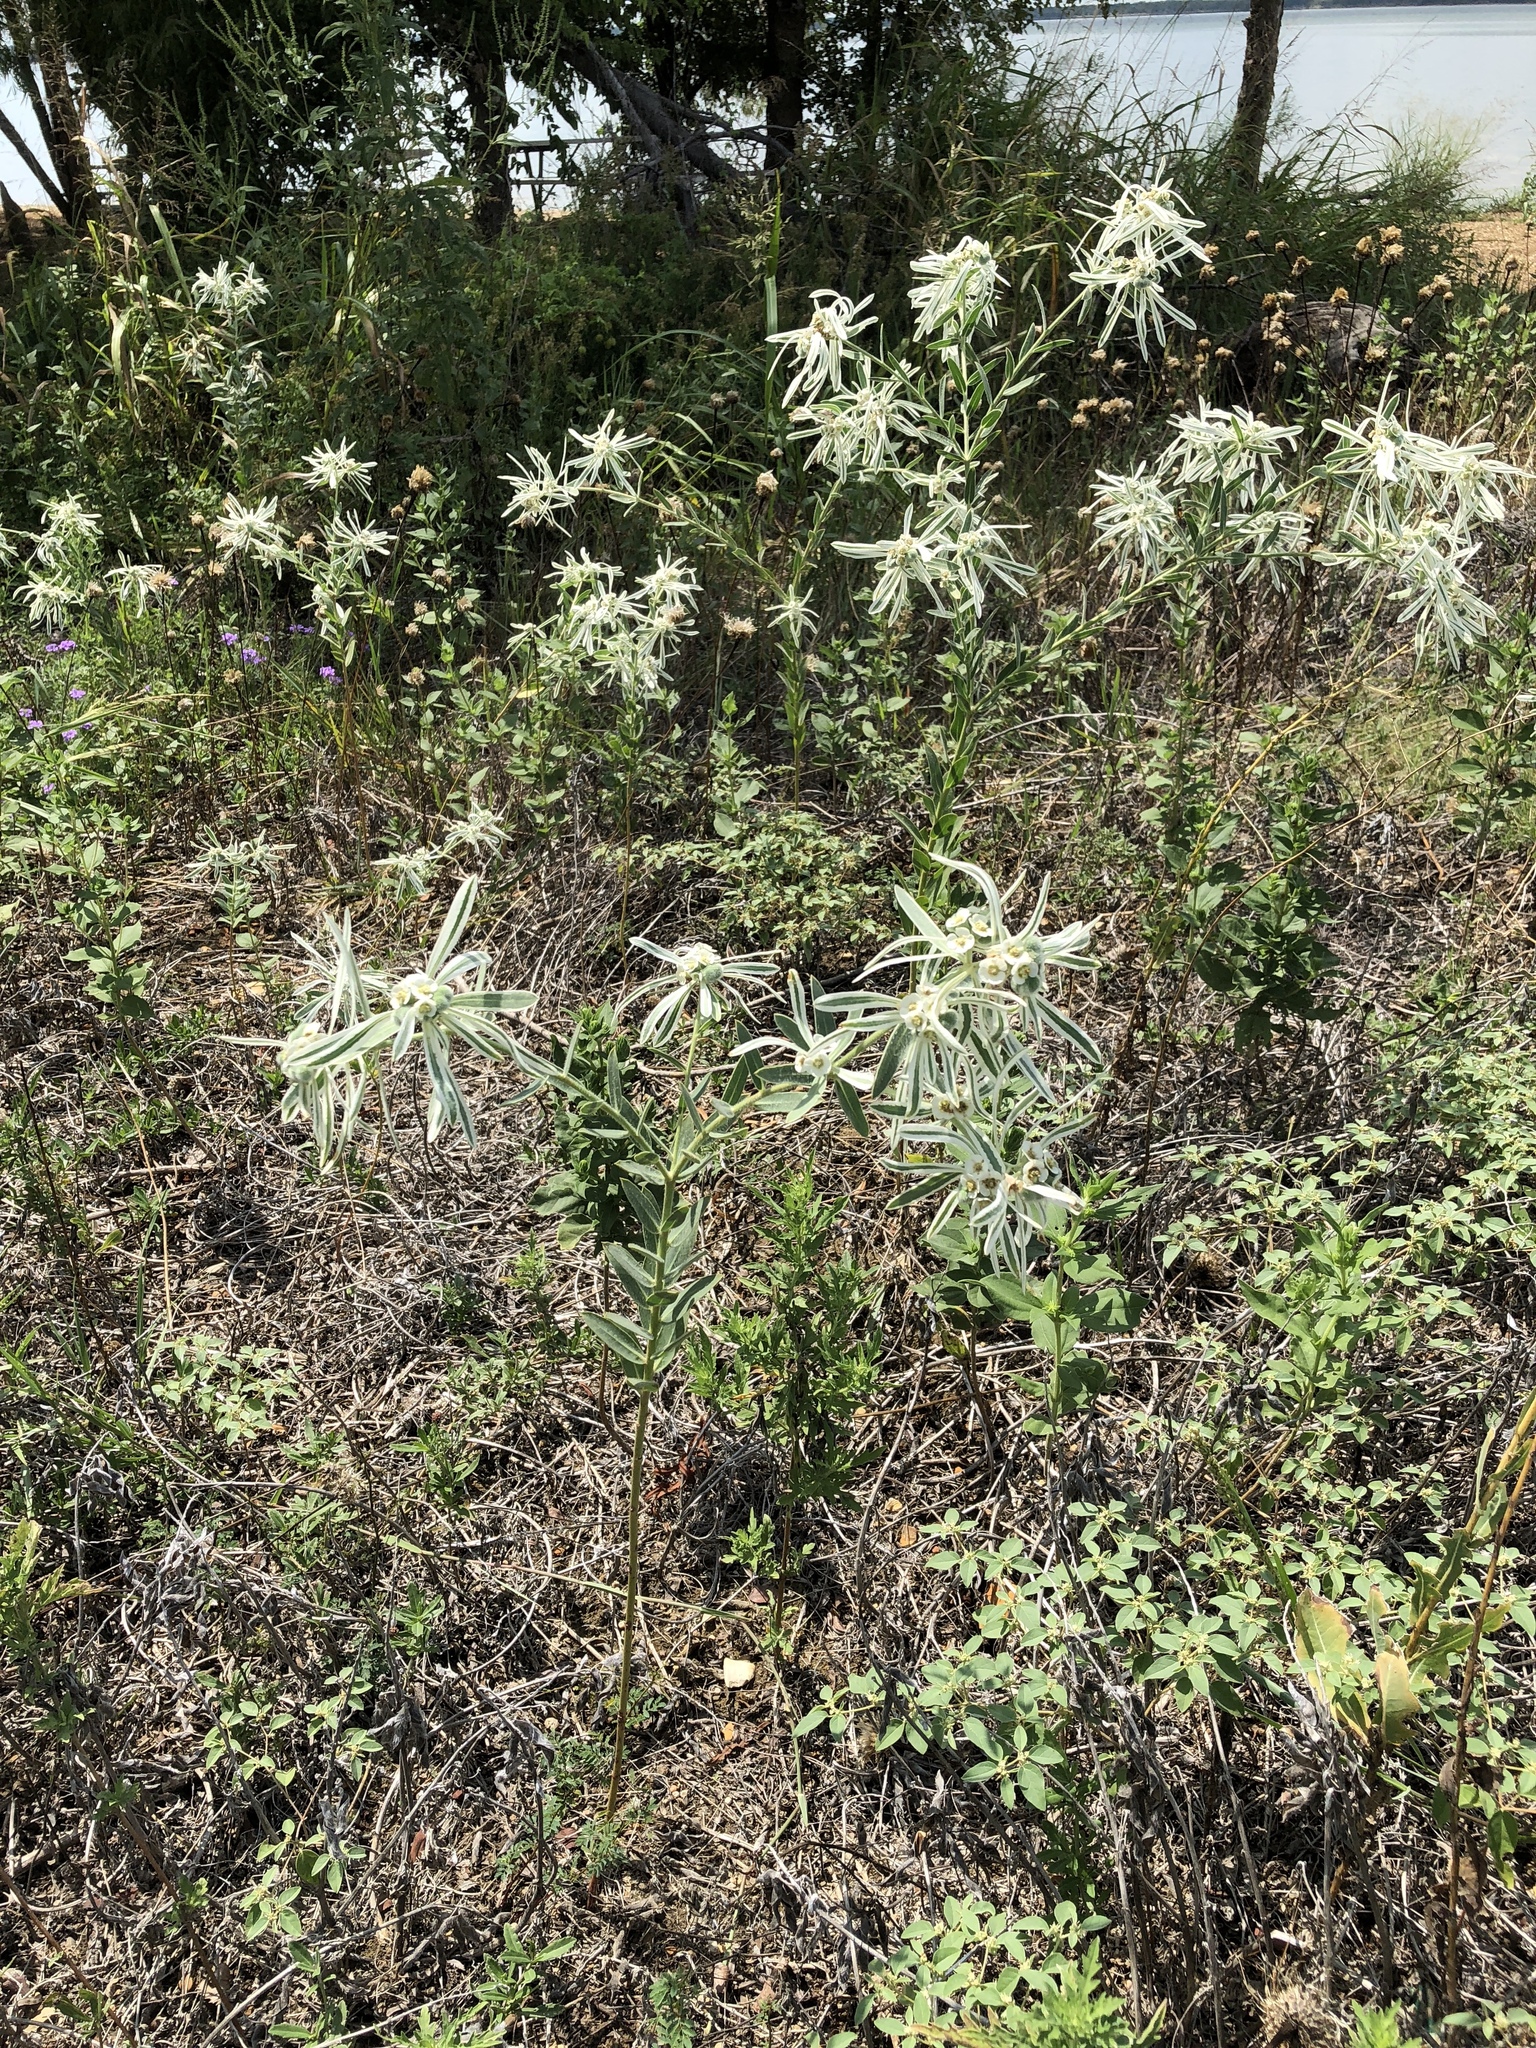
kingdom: Plantae
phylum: Tracheophyta
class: Magnoliopsida
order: Malpighiales
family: Euphorbiaceae
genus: Euphorbia
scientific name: Euphorbia bicolor
